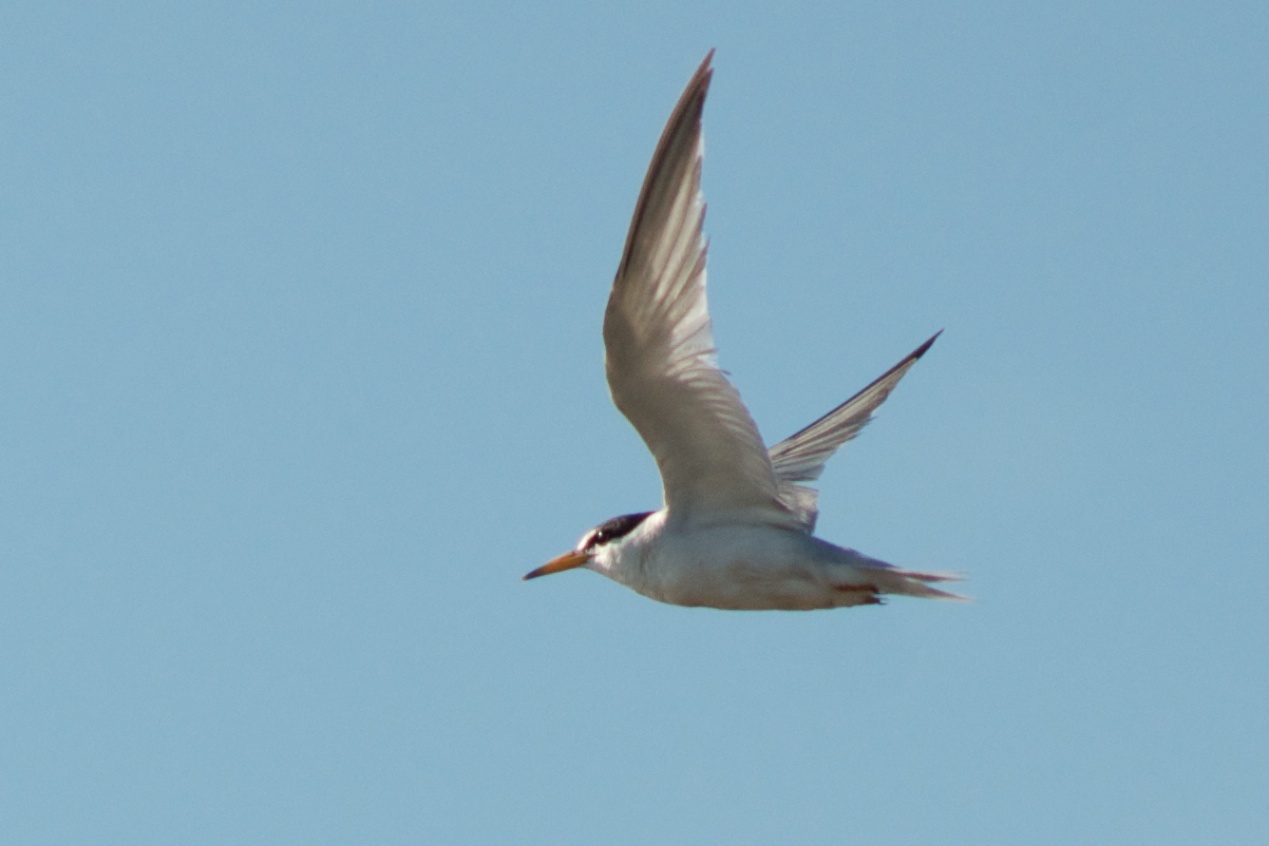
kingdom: Animalia
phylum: Chordata
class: Aves
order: Charadriiformes
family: Laridae
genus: Sternula
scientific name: Sternula antillarum
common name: Least tern
